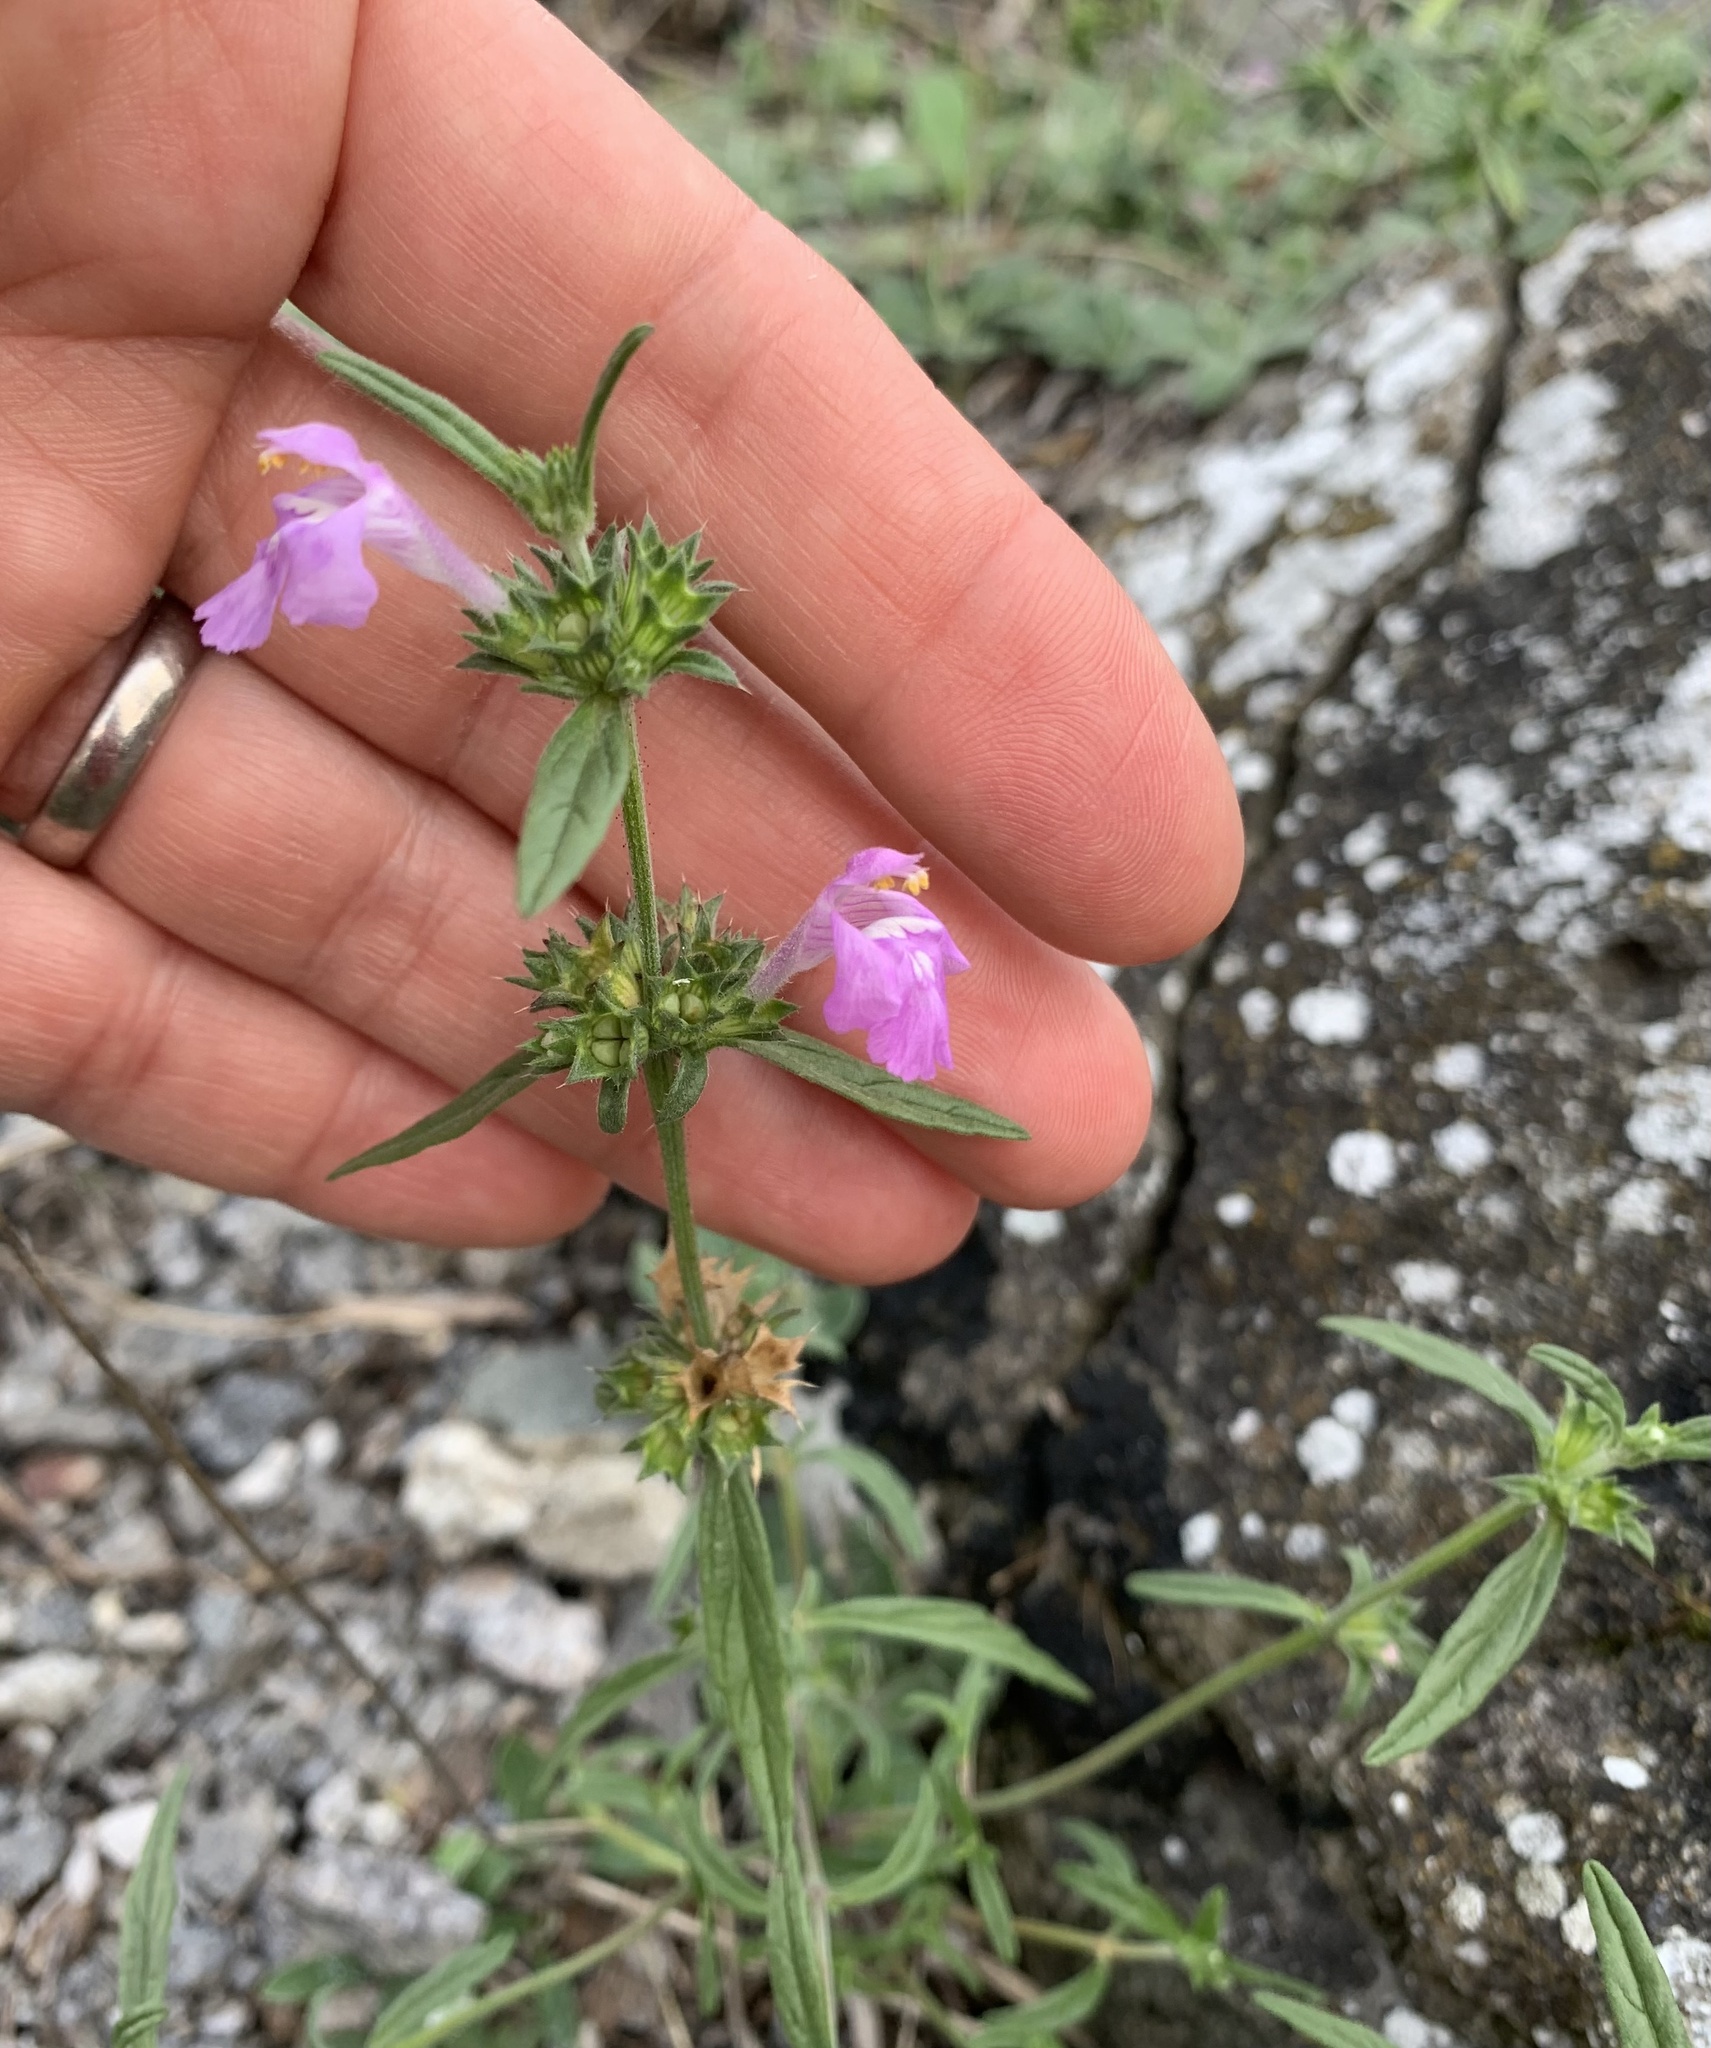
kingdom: Plantae
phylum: Tracheophyta
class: Magnoliopsida
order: Lamiales
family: Lamiaceae
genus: Galeopsis
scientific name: Galeopsis angustifolia
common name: Red hemp-nettle
